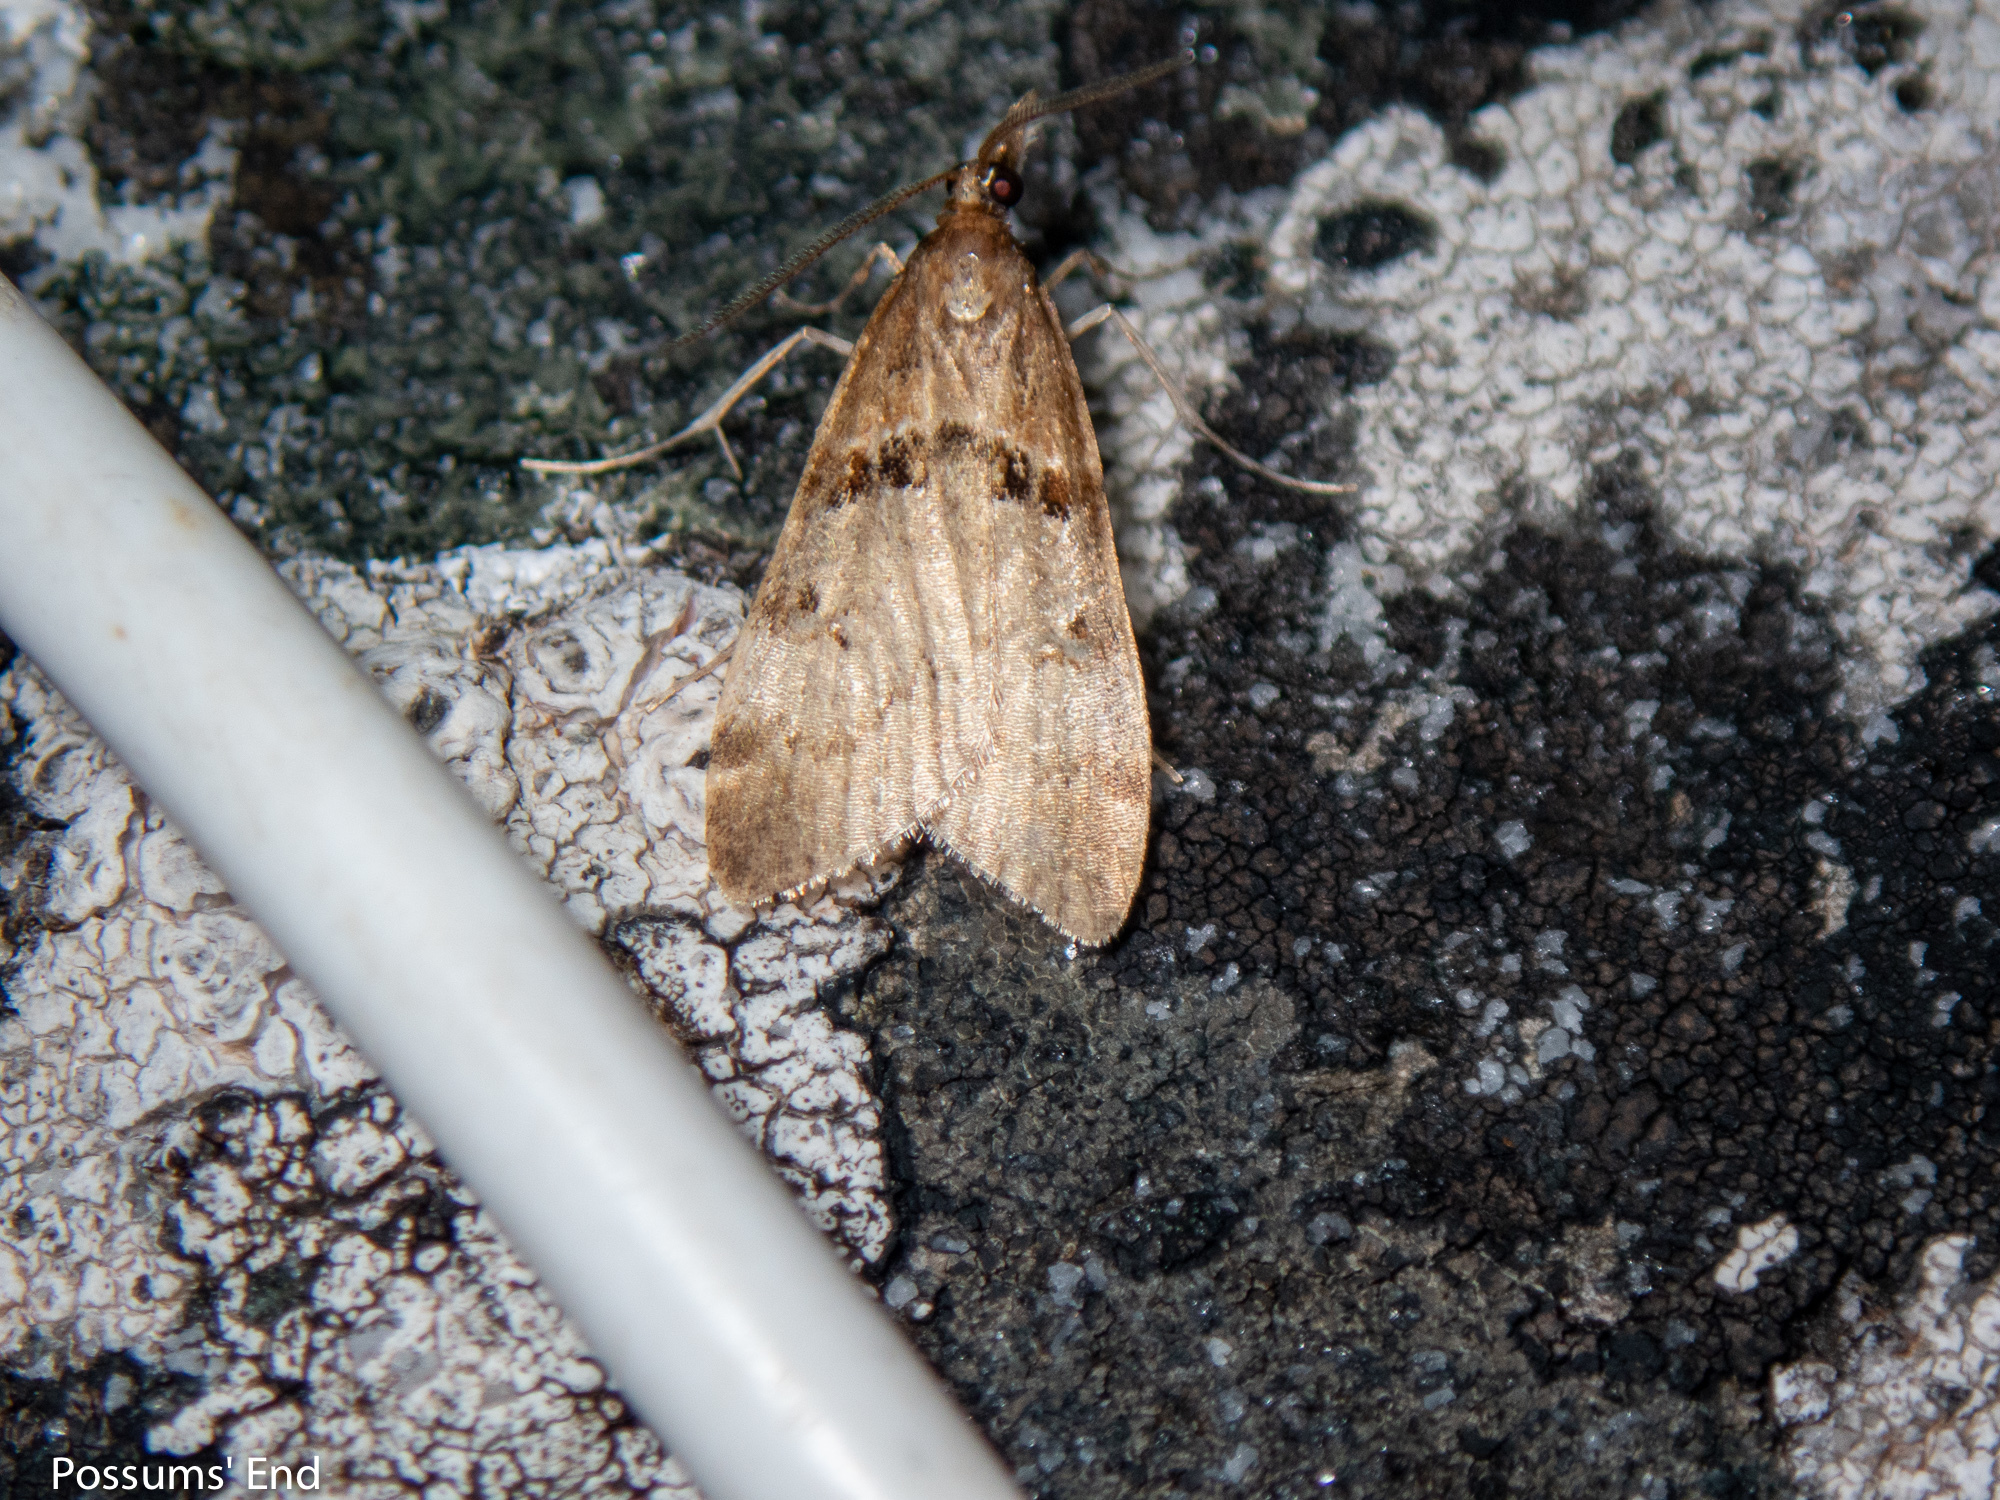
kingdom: Animalia
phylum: Arthropoda
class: Insecta
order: Lepidoptera
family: Crambidae
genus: Antiscopa
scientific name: Antiscopa acompa
